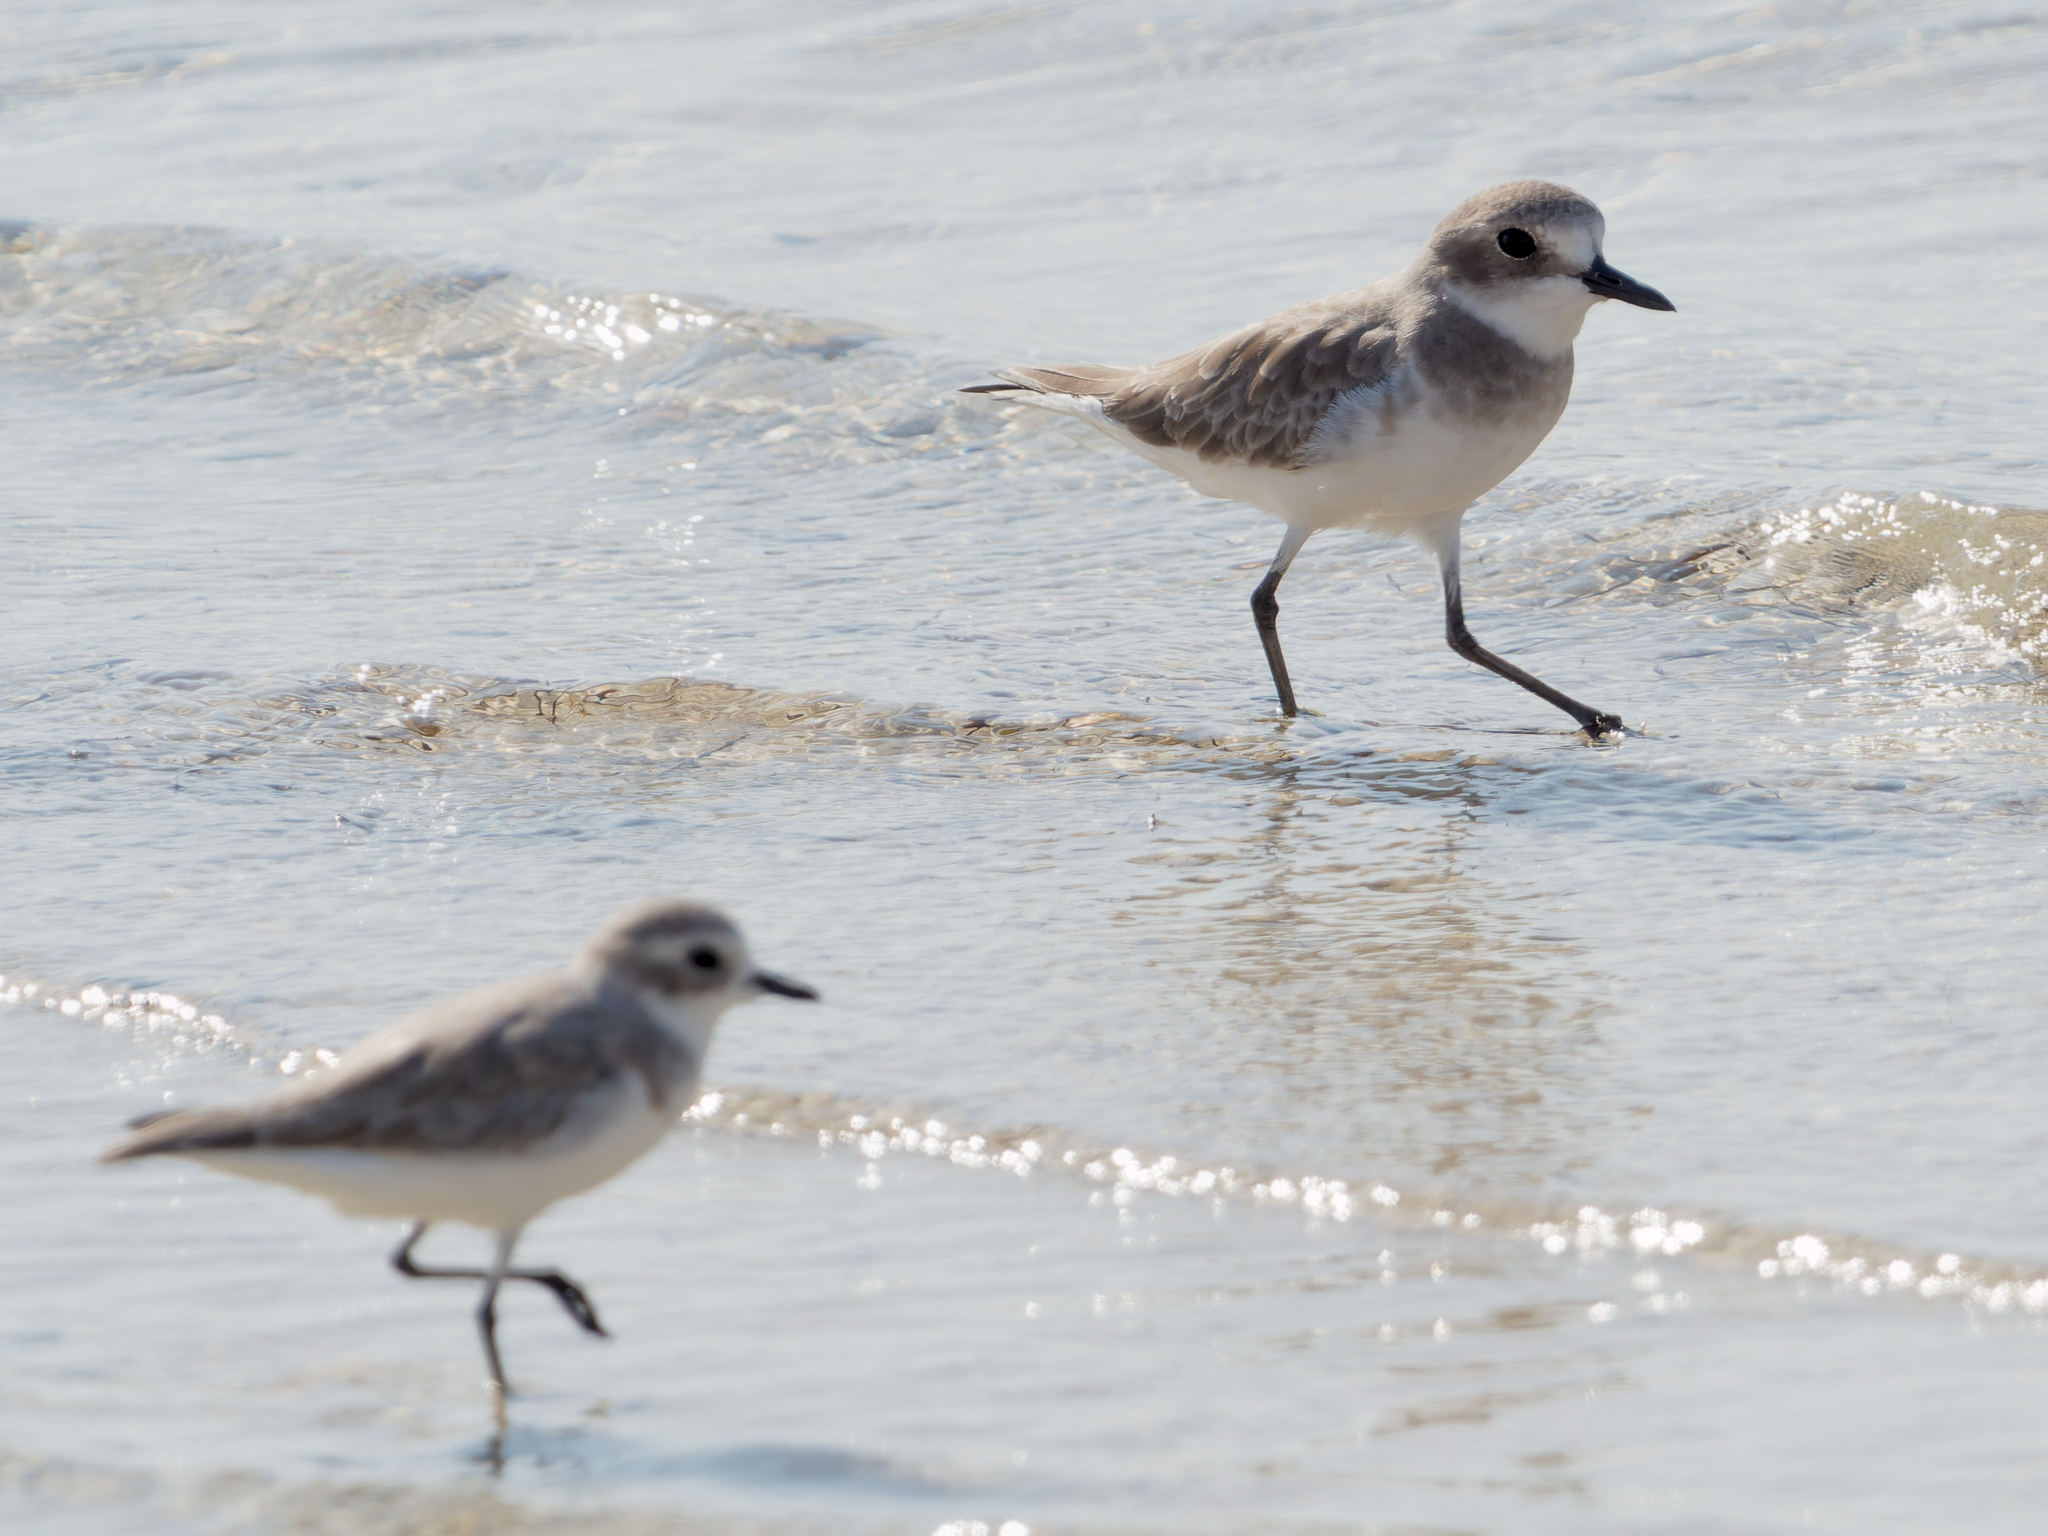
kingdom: Animalia
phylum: Chordata
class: Aves
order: Charadriiformes
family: Charadriidae
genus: Charadrius
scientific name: Charadrius leschenaultii
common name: Greater sand plover
